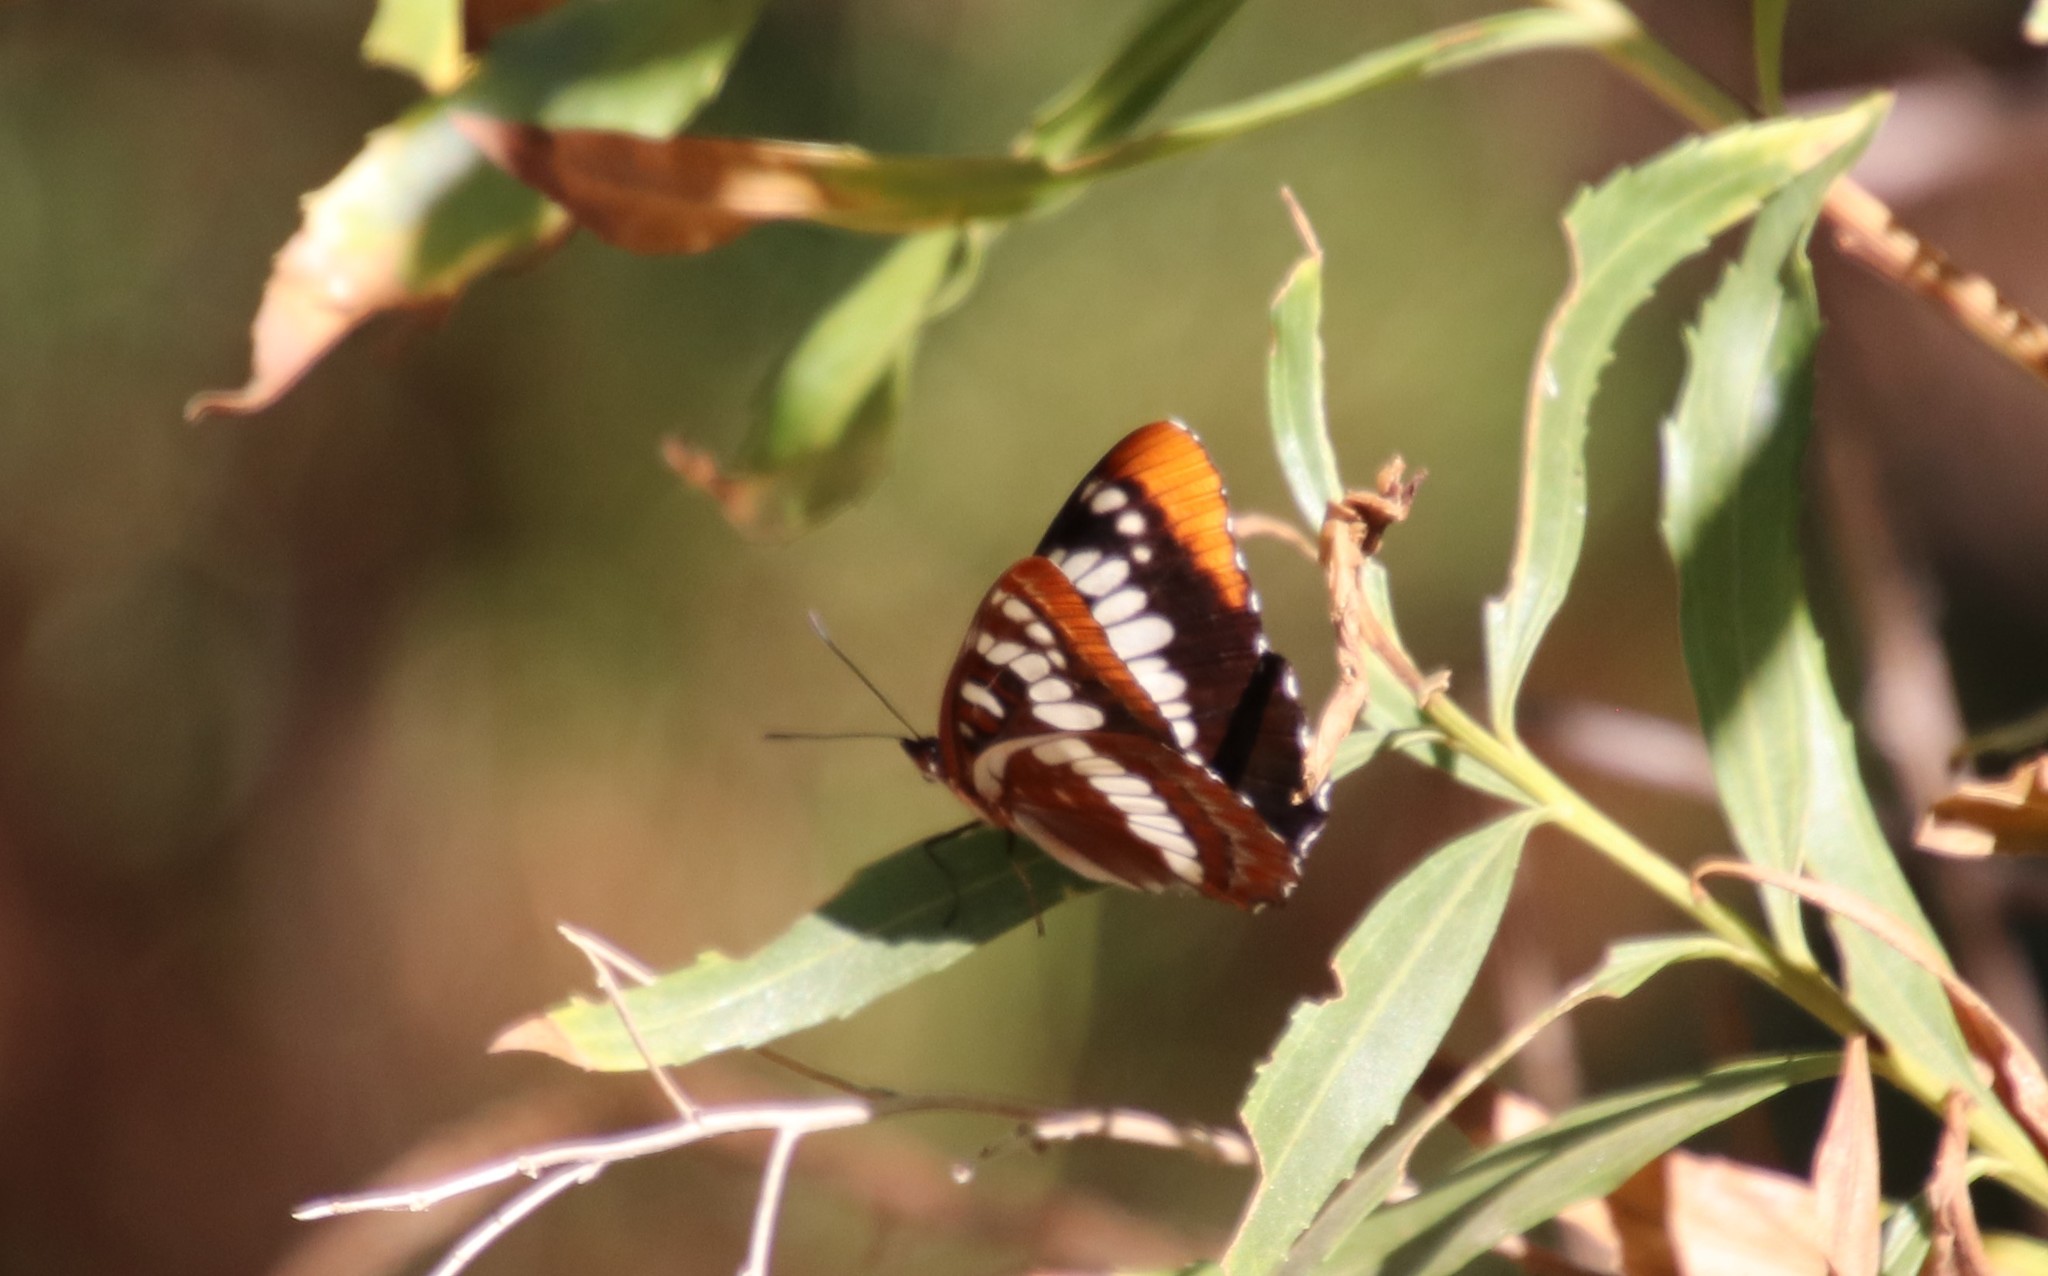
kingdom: Animalia
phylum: Arthropoda
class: Insecta
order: Lepidoptera
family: Nymphalidae
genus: Limenitis
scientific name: Limenitis lorquini
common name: Lorquin's admiral
